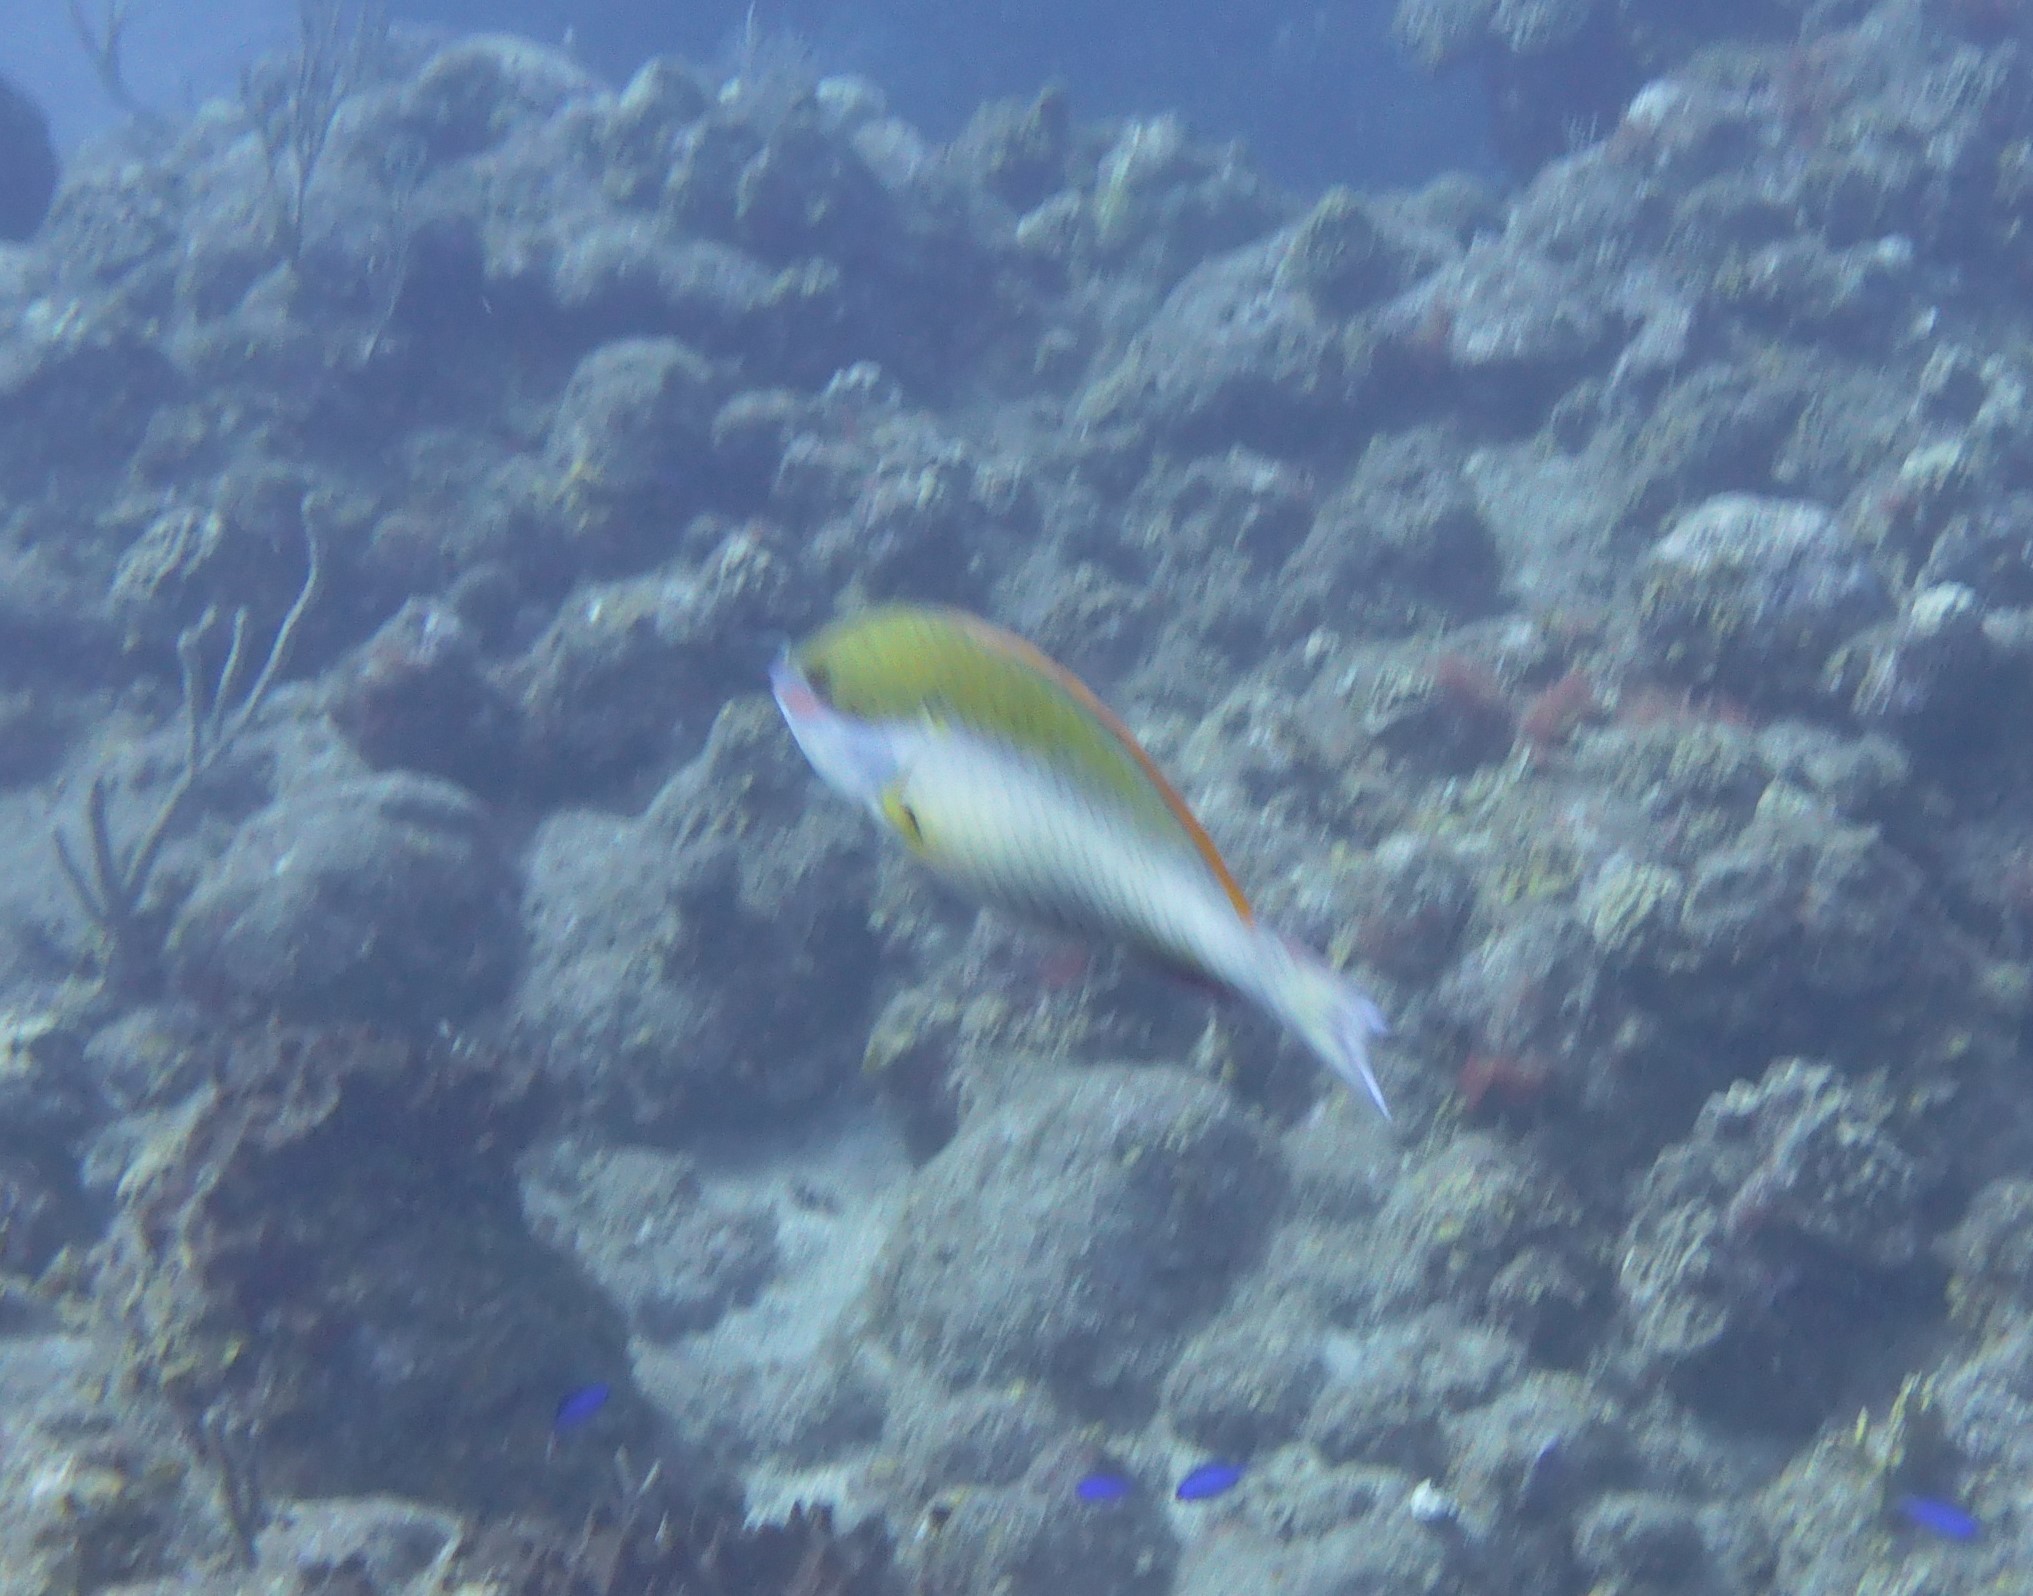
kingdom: Animalia
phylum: Chordata
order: Perciformes
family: Scaridae
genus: Sparisoma
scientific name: Sparisoma aurofrenatum
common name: Redband parrotfish
